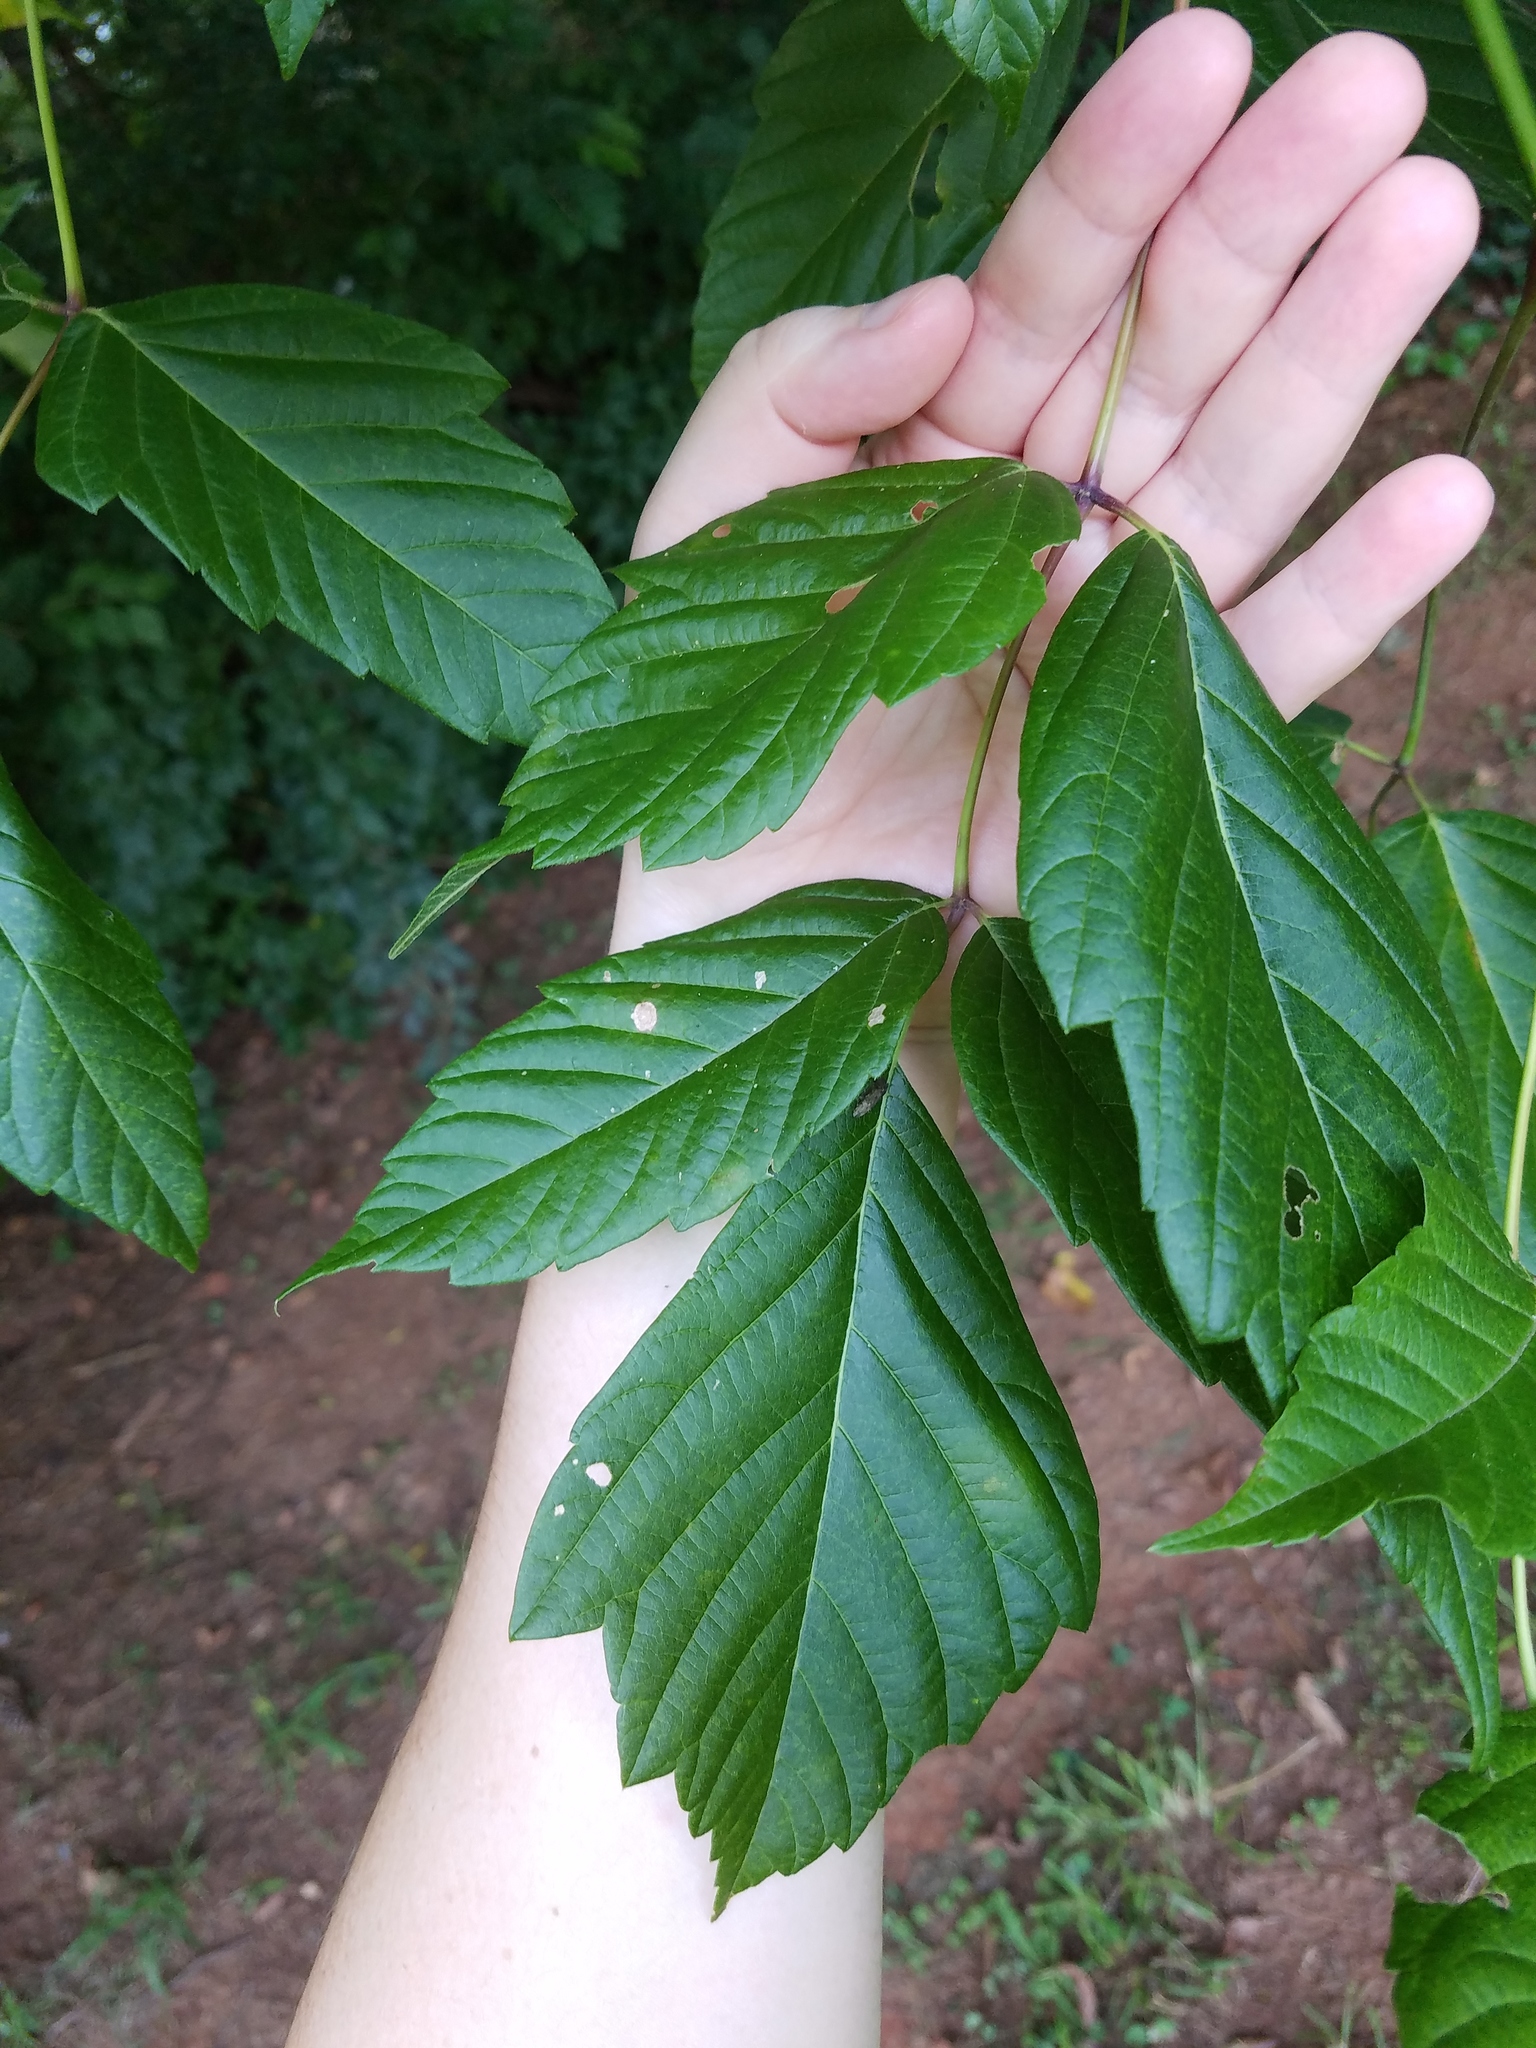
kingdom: Plantae
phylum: Tracheophyta
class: Magnoliopsida
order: Sapindales
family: Sapindaceae
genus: Acer
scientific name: Acer negundo
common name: Ashleaf maple
